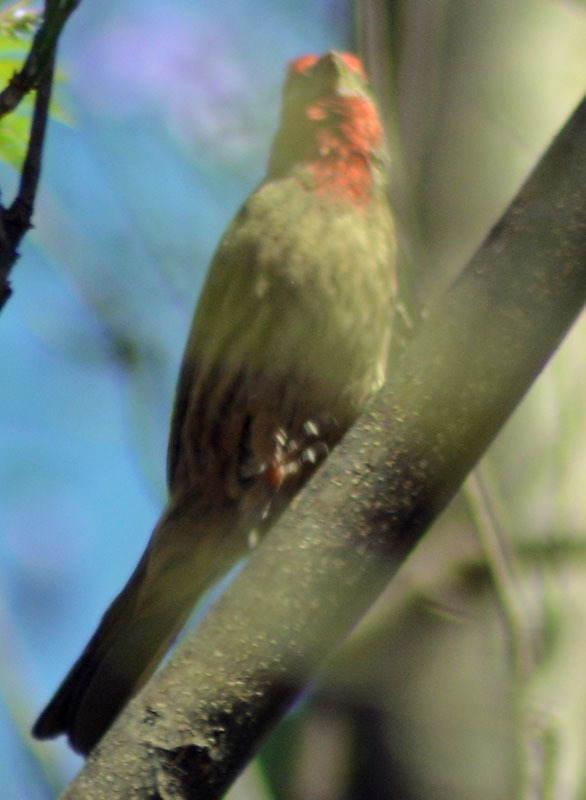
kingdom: Animalia
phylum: Chordata
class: Aves
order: Passeriformes
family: Fringillidae
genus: Haemorhous
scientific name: Haemorhous mexicanus
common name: House finch
